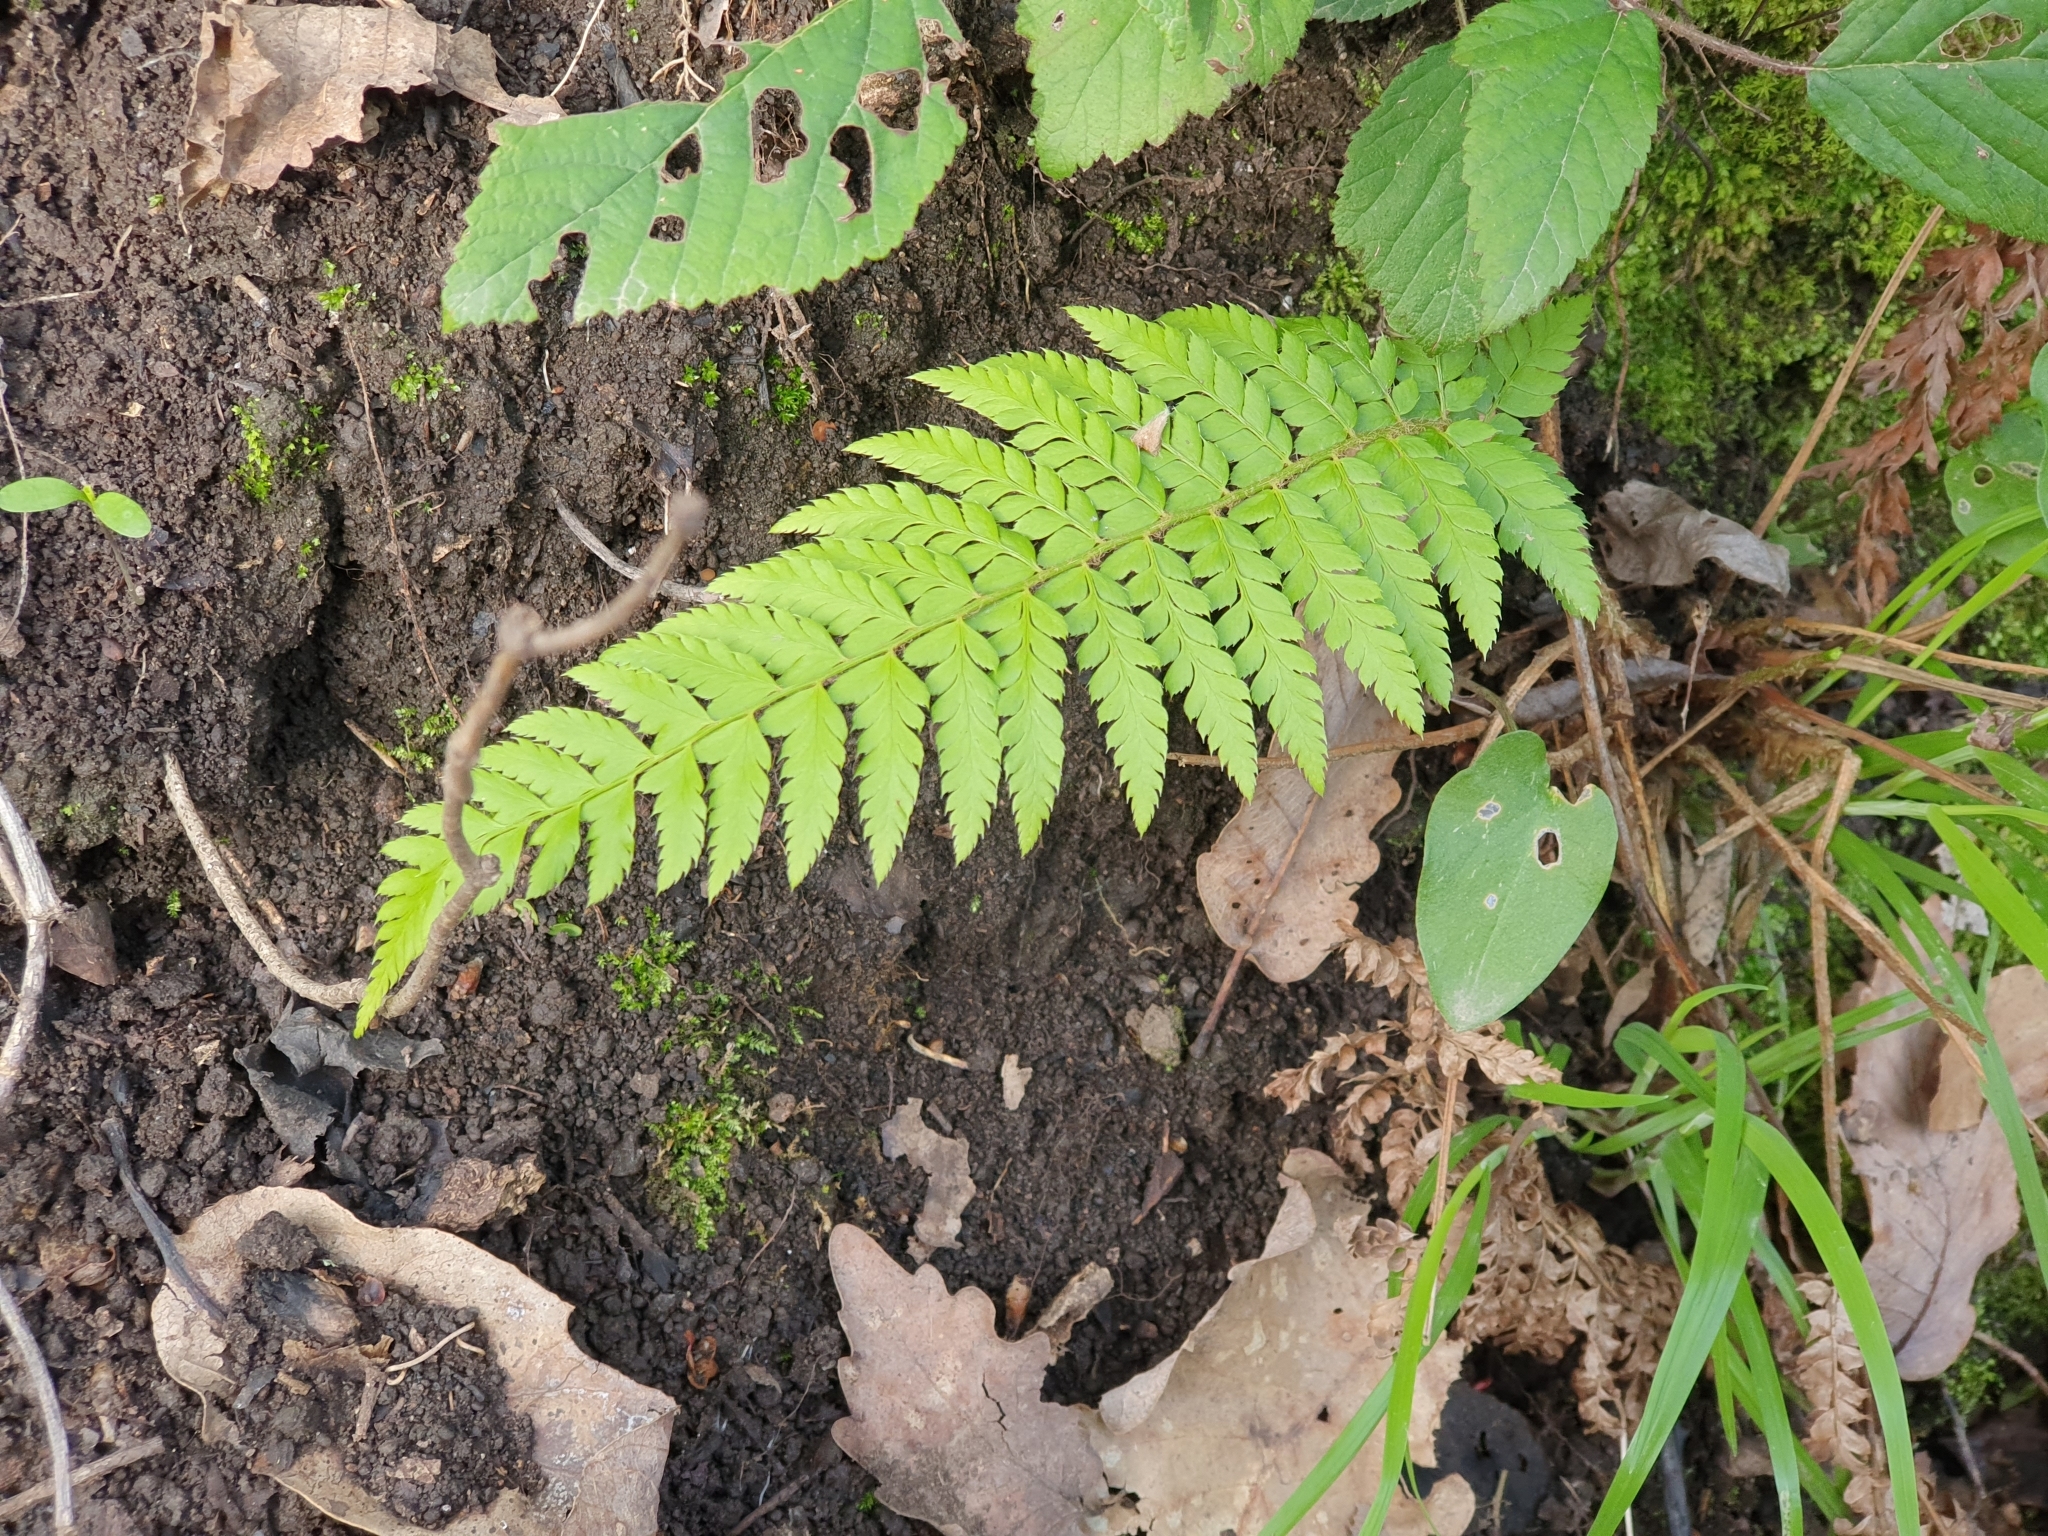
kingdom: Plantae
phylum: Tracheophyta
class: Polypodiopsida
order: Polypodiales
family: Dryopteridaceae
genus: Polystichum
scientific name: Polystichum setiferum
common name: Soft shield-fern
